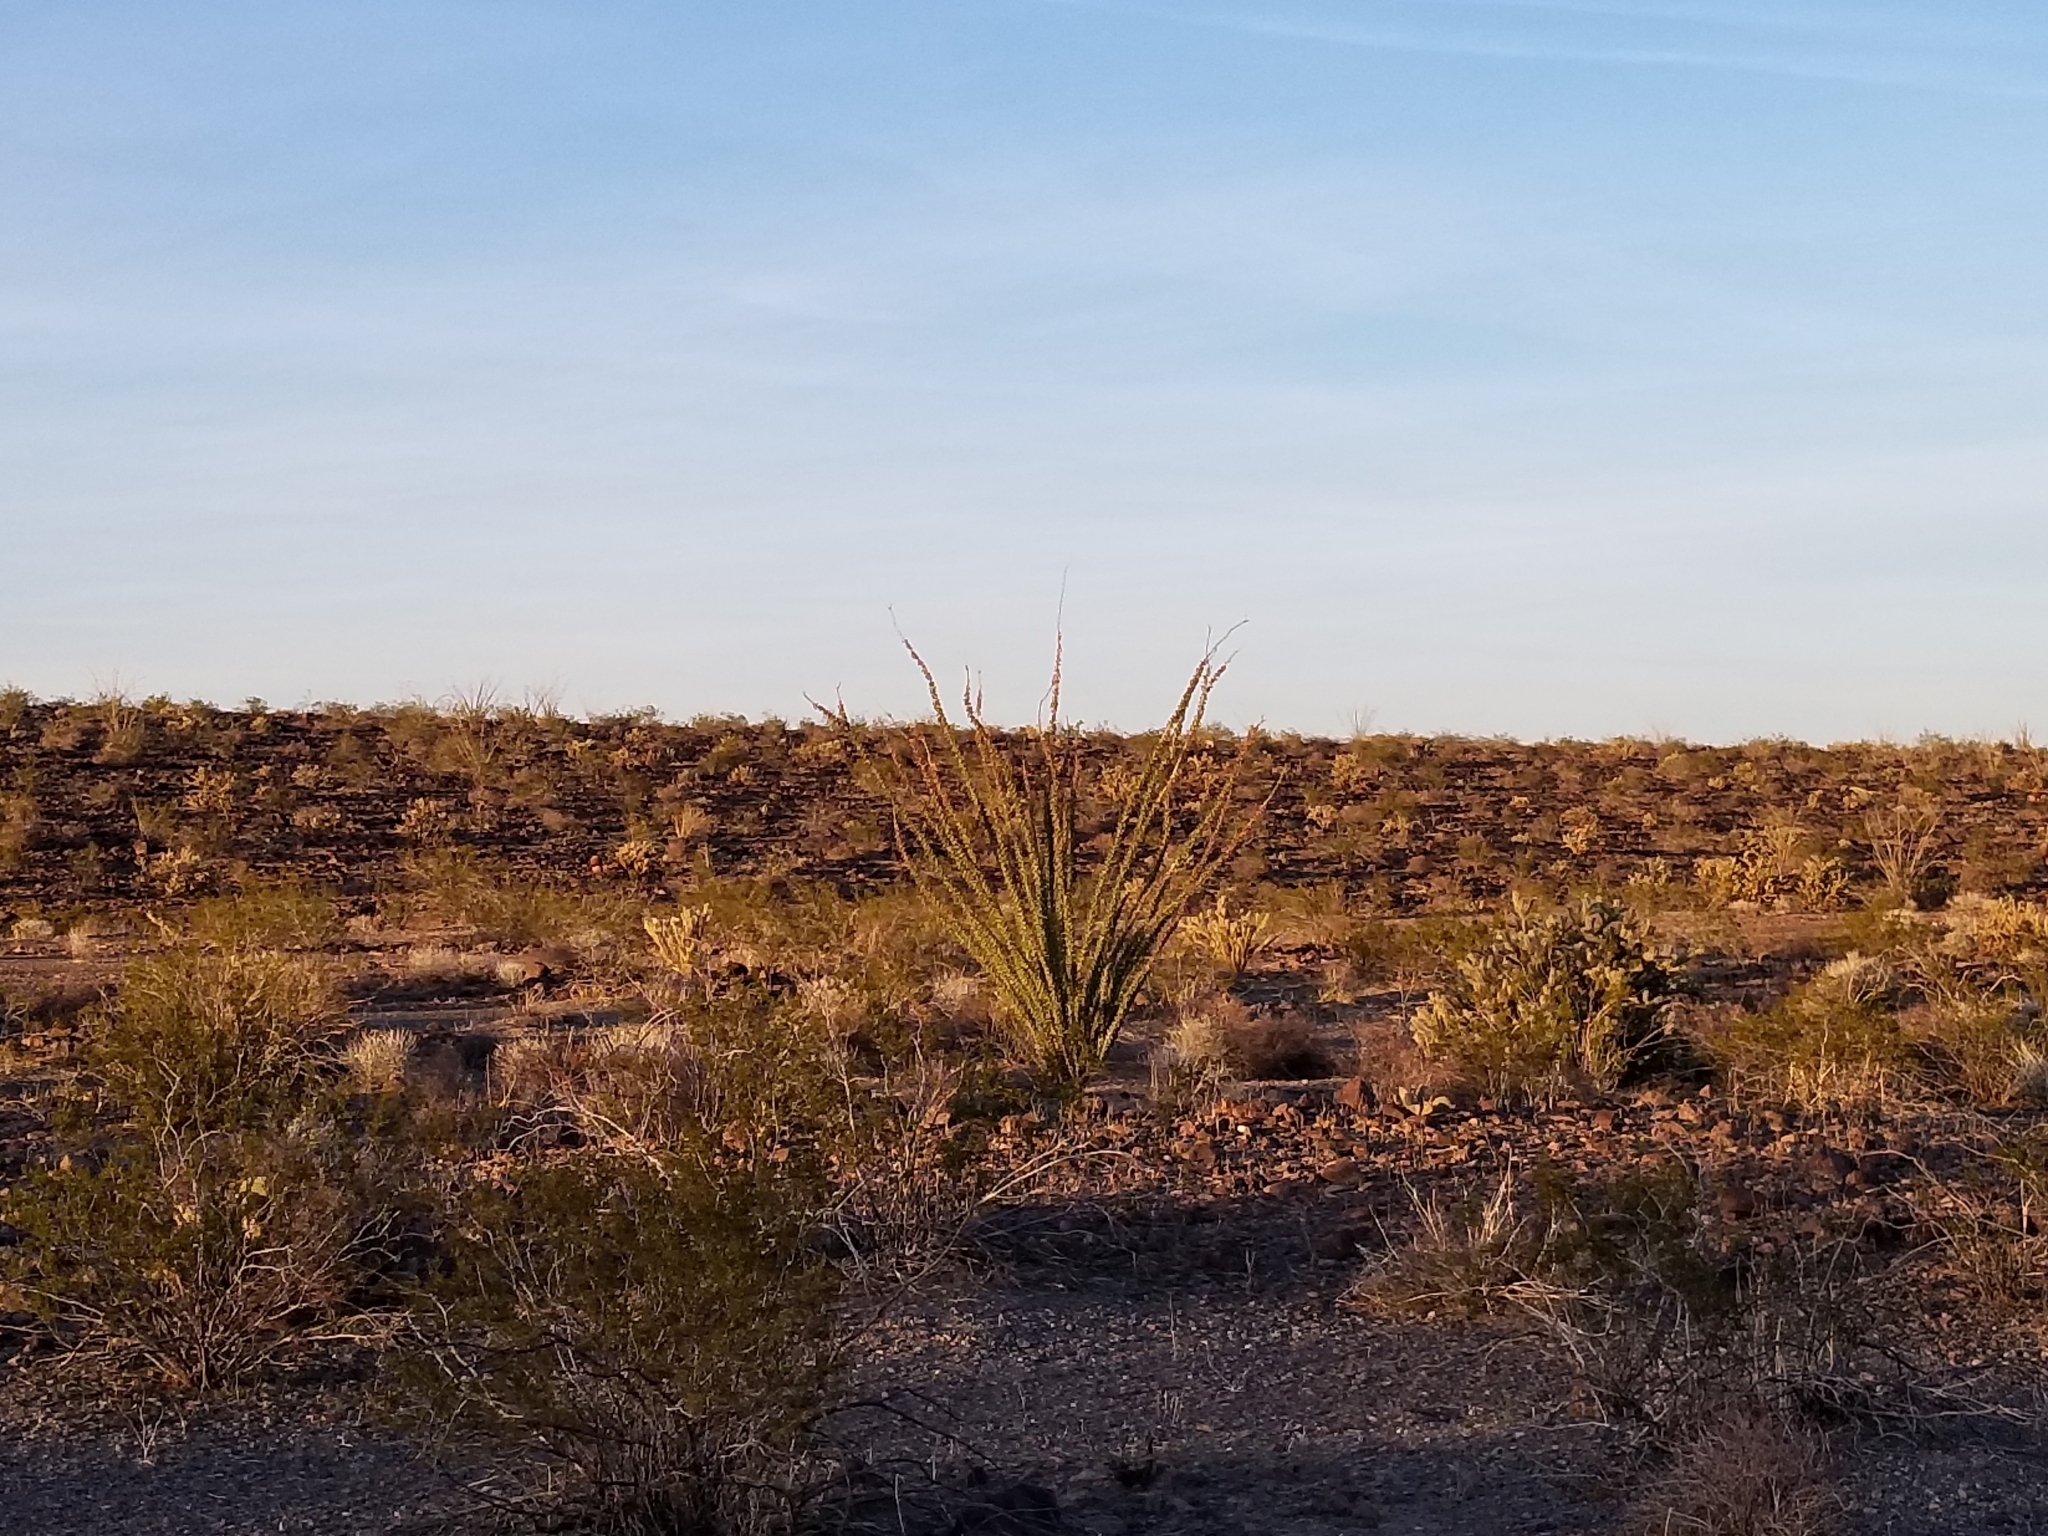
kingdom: Plantae
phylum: Tracheophyta
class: Magnoliopsida
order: Ericales
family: Fouquieriaceae
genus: Fouquieria
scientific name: Fouquieria splendens
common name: Vine-cactus
